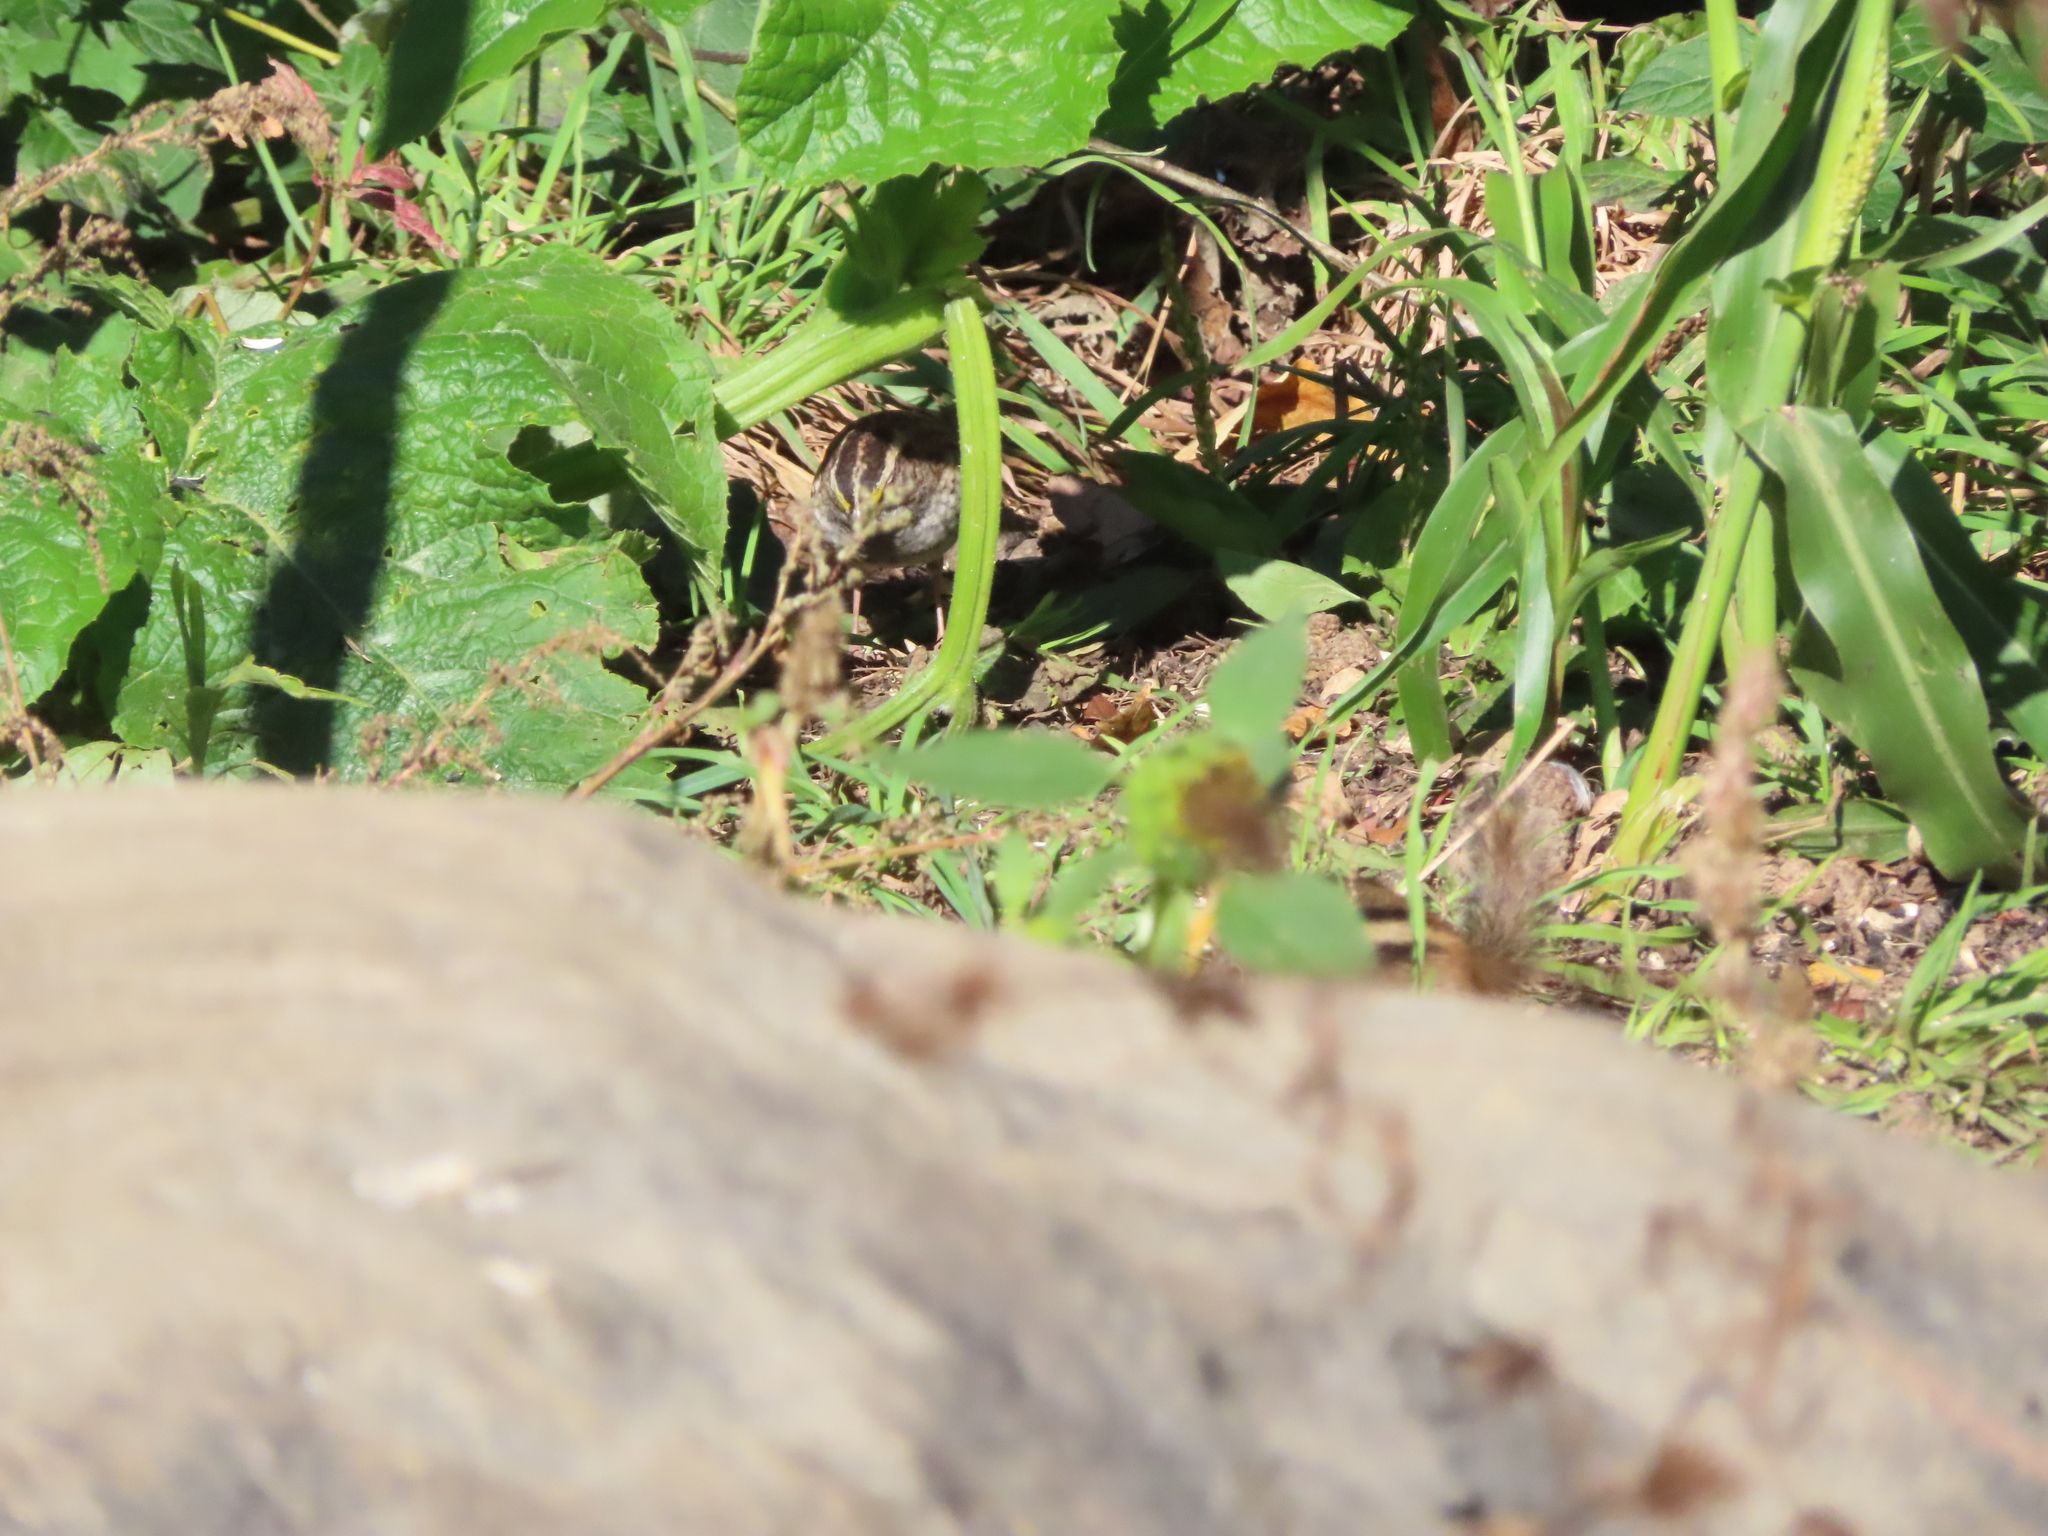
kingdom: Animalia
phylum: Chordata
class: Aves
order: Passeriformes
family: Passerellidae
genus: Zonotrichia
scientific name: Zonotrichia albicollis
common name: White-throated sparrow
